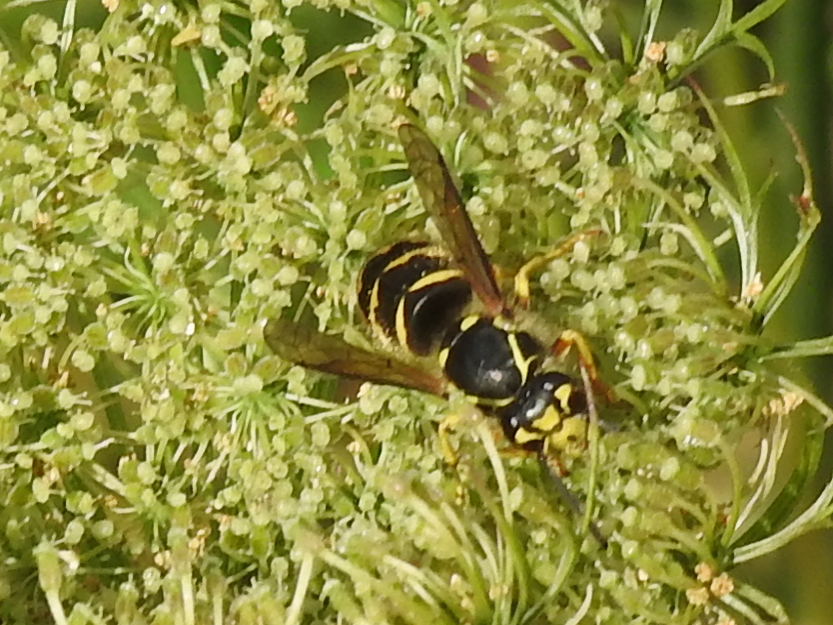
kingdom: Animalia
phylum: Arthropoda
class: Insecta
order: Hymenoptera
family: Vespidae
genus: Dolichovespula
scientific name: Dolichovespula arenaria
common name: Aerial yellowjacket
